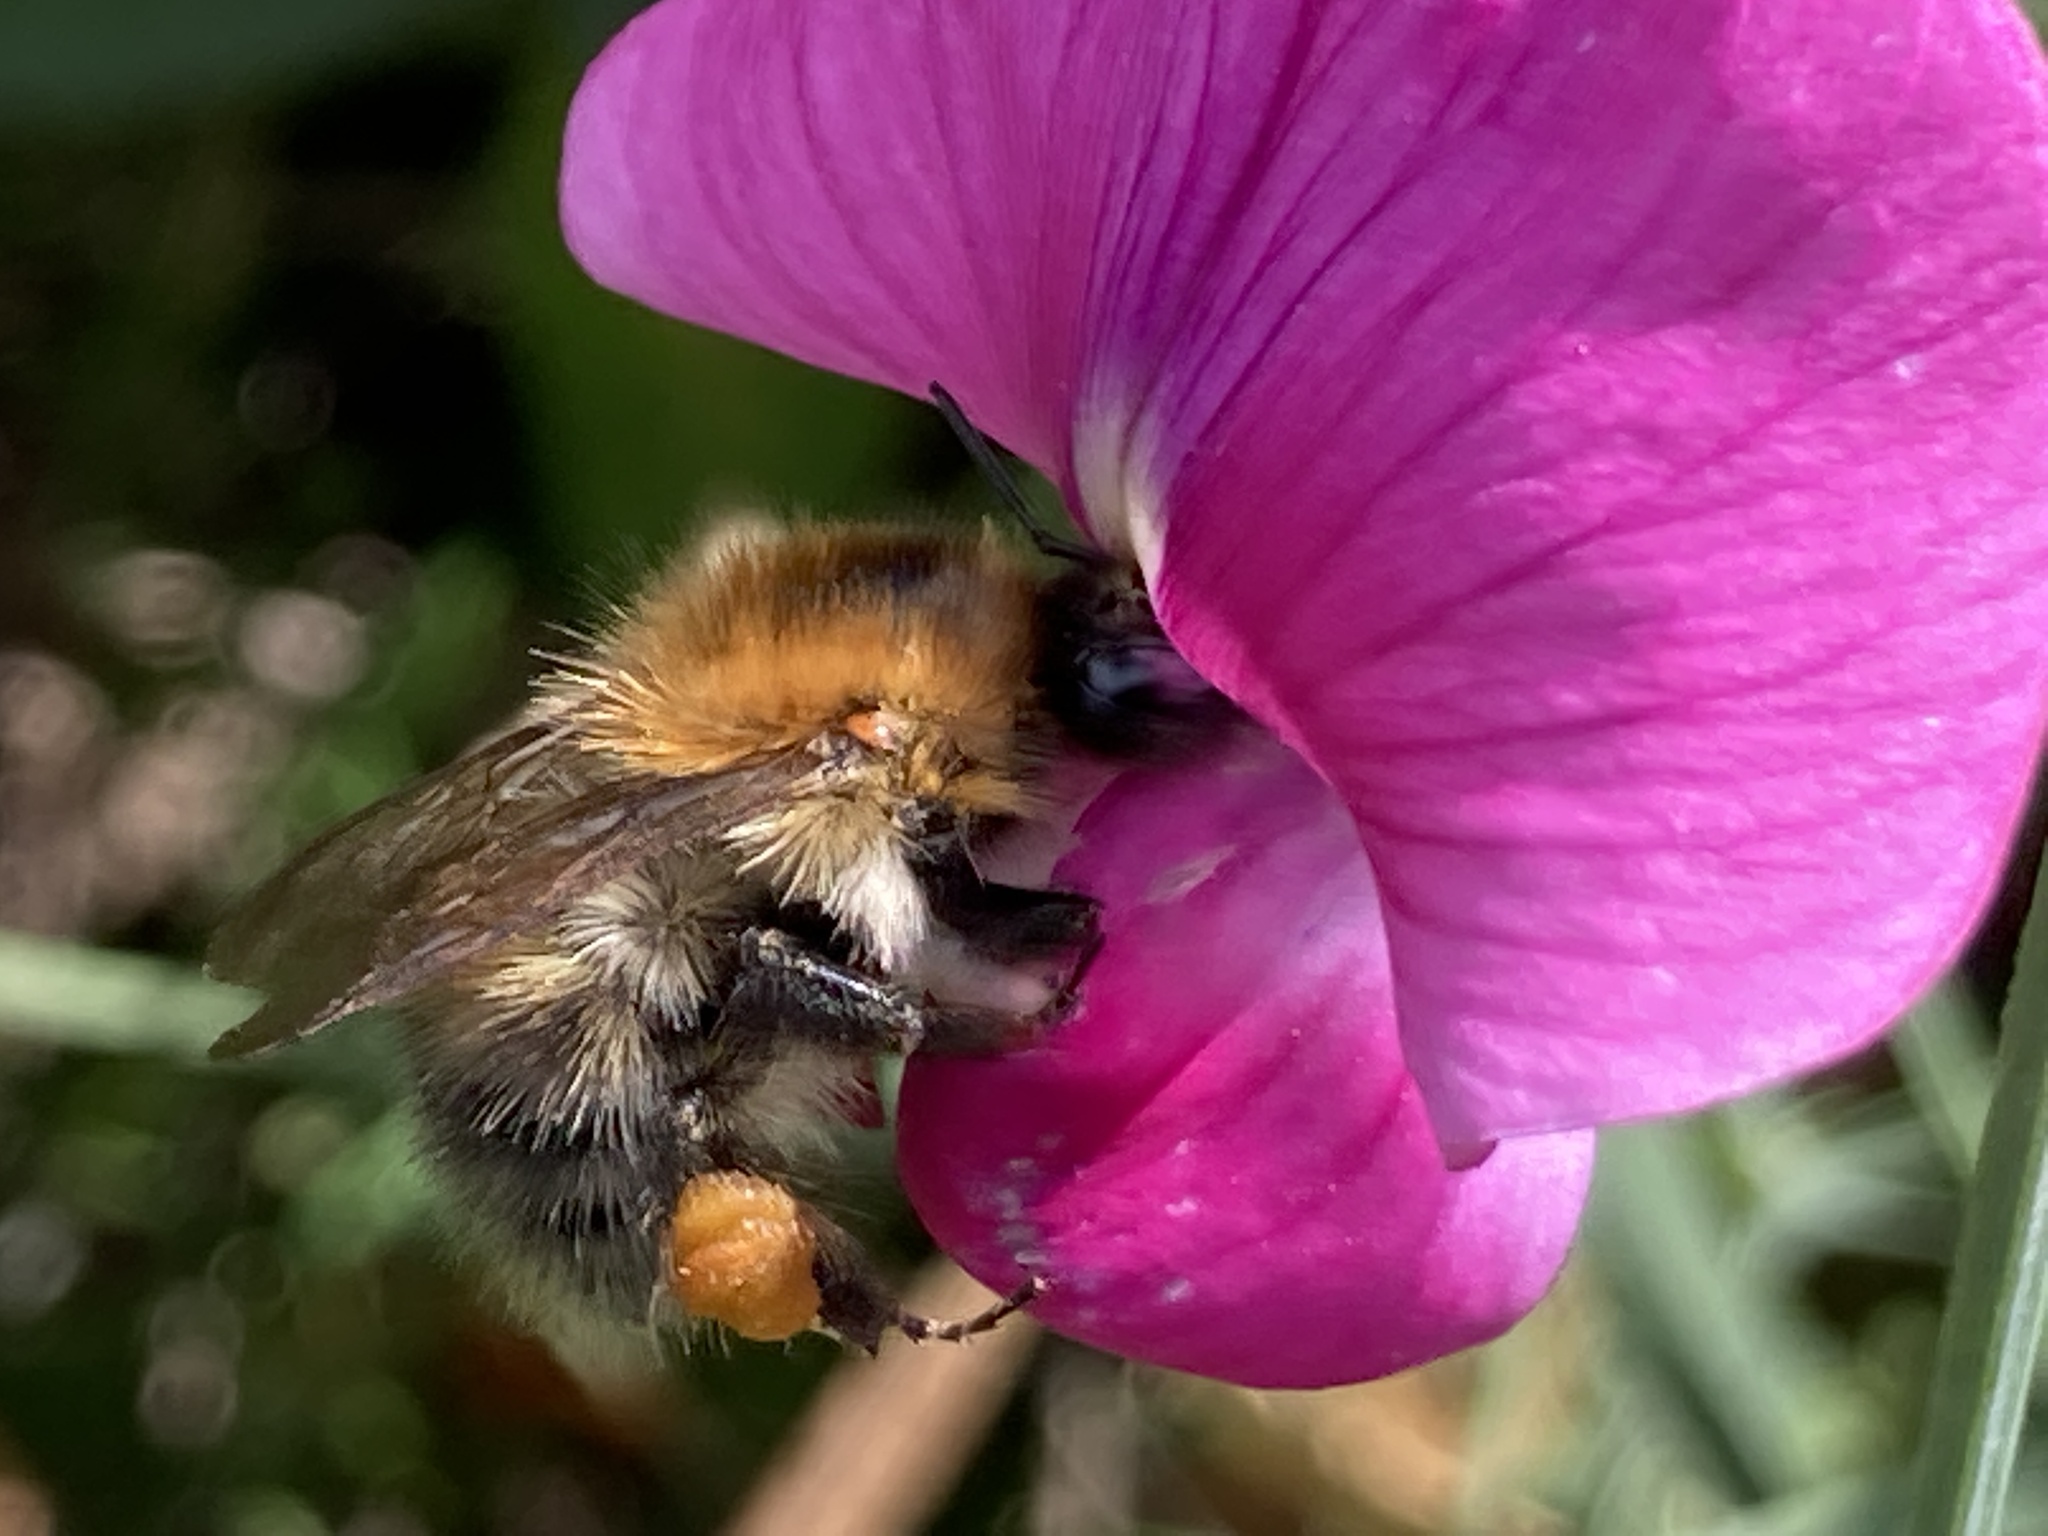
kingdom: Animalia
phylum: Arthropoda
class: Insecta
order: Hymenoptera
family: Apidae
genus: Bombus
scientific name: Bombus pascuorum
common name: Common carder bee
